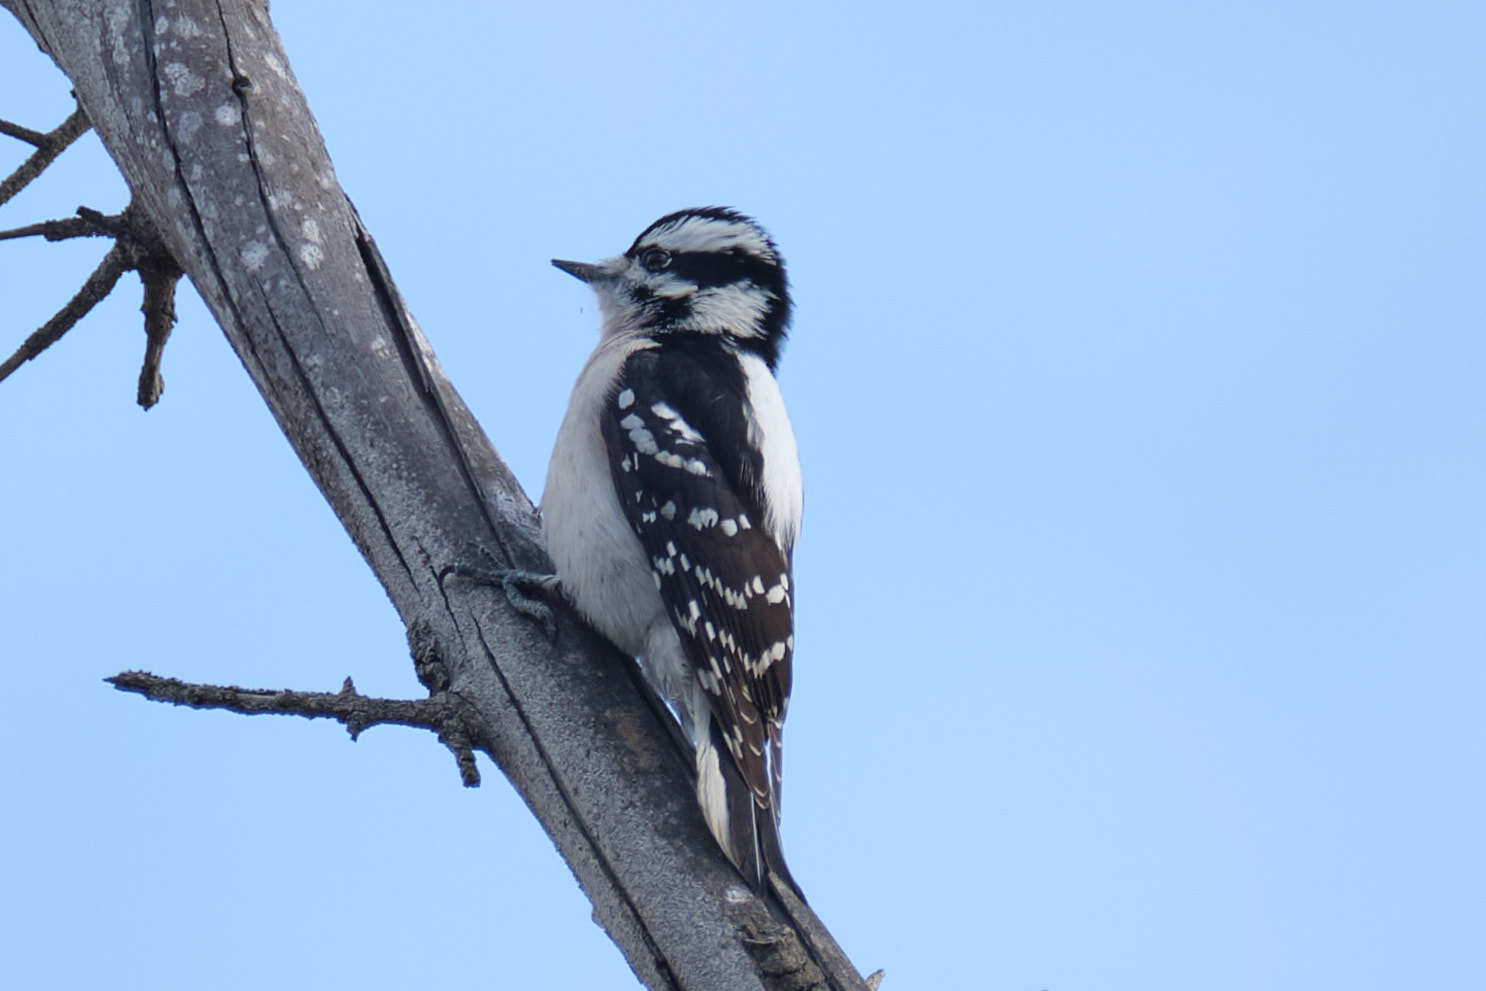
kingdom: Animalia
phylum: Chordata
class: Aves
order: Piciformes
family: Picidae
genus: Dryobates
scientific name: Dryobates pubescens
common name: Downy woodpecker
